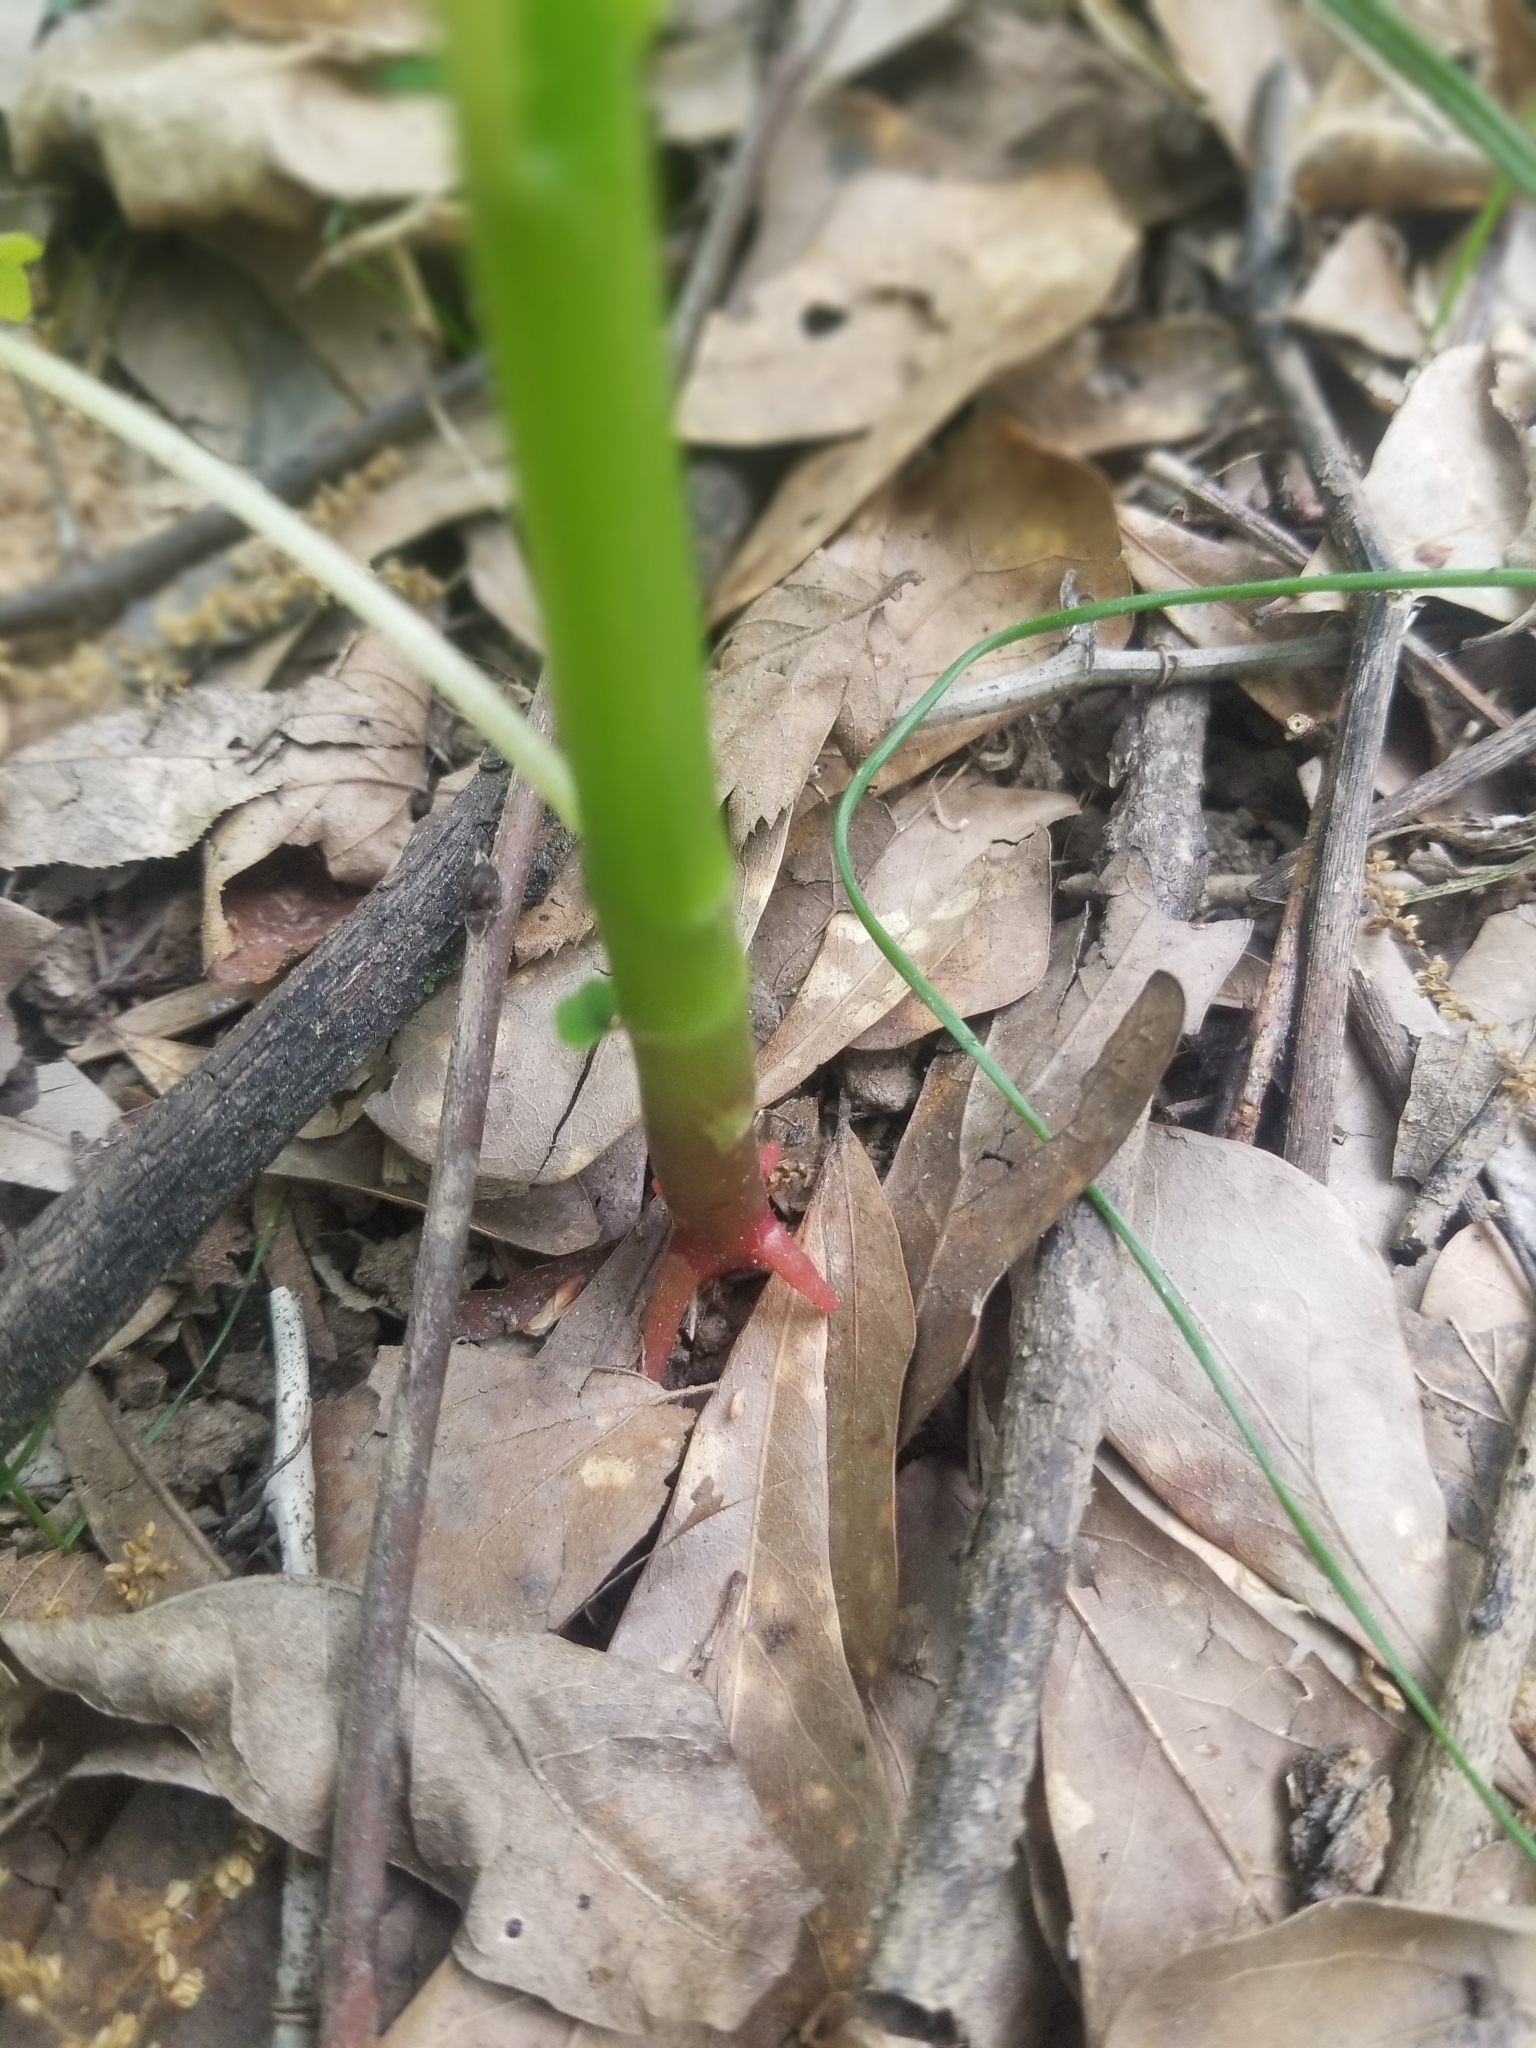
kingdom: Plantae
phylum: Tracheophyta
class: Magnoliopsida
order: Ericales
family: Balsaminaceae
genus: Impatiens
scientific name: Impatiens capensis
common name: Orange balsam
